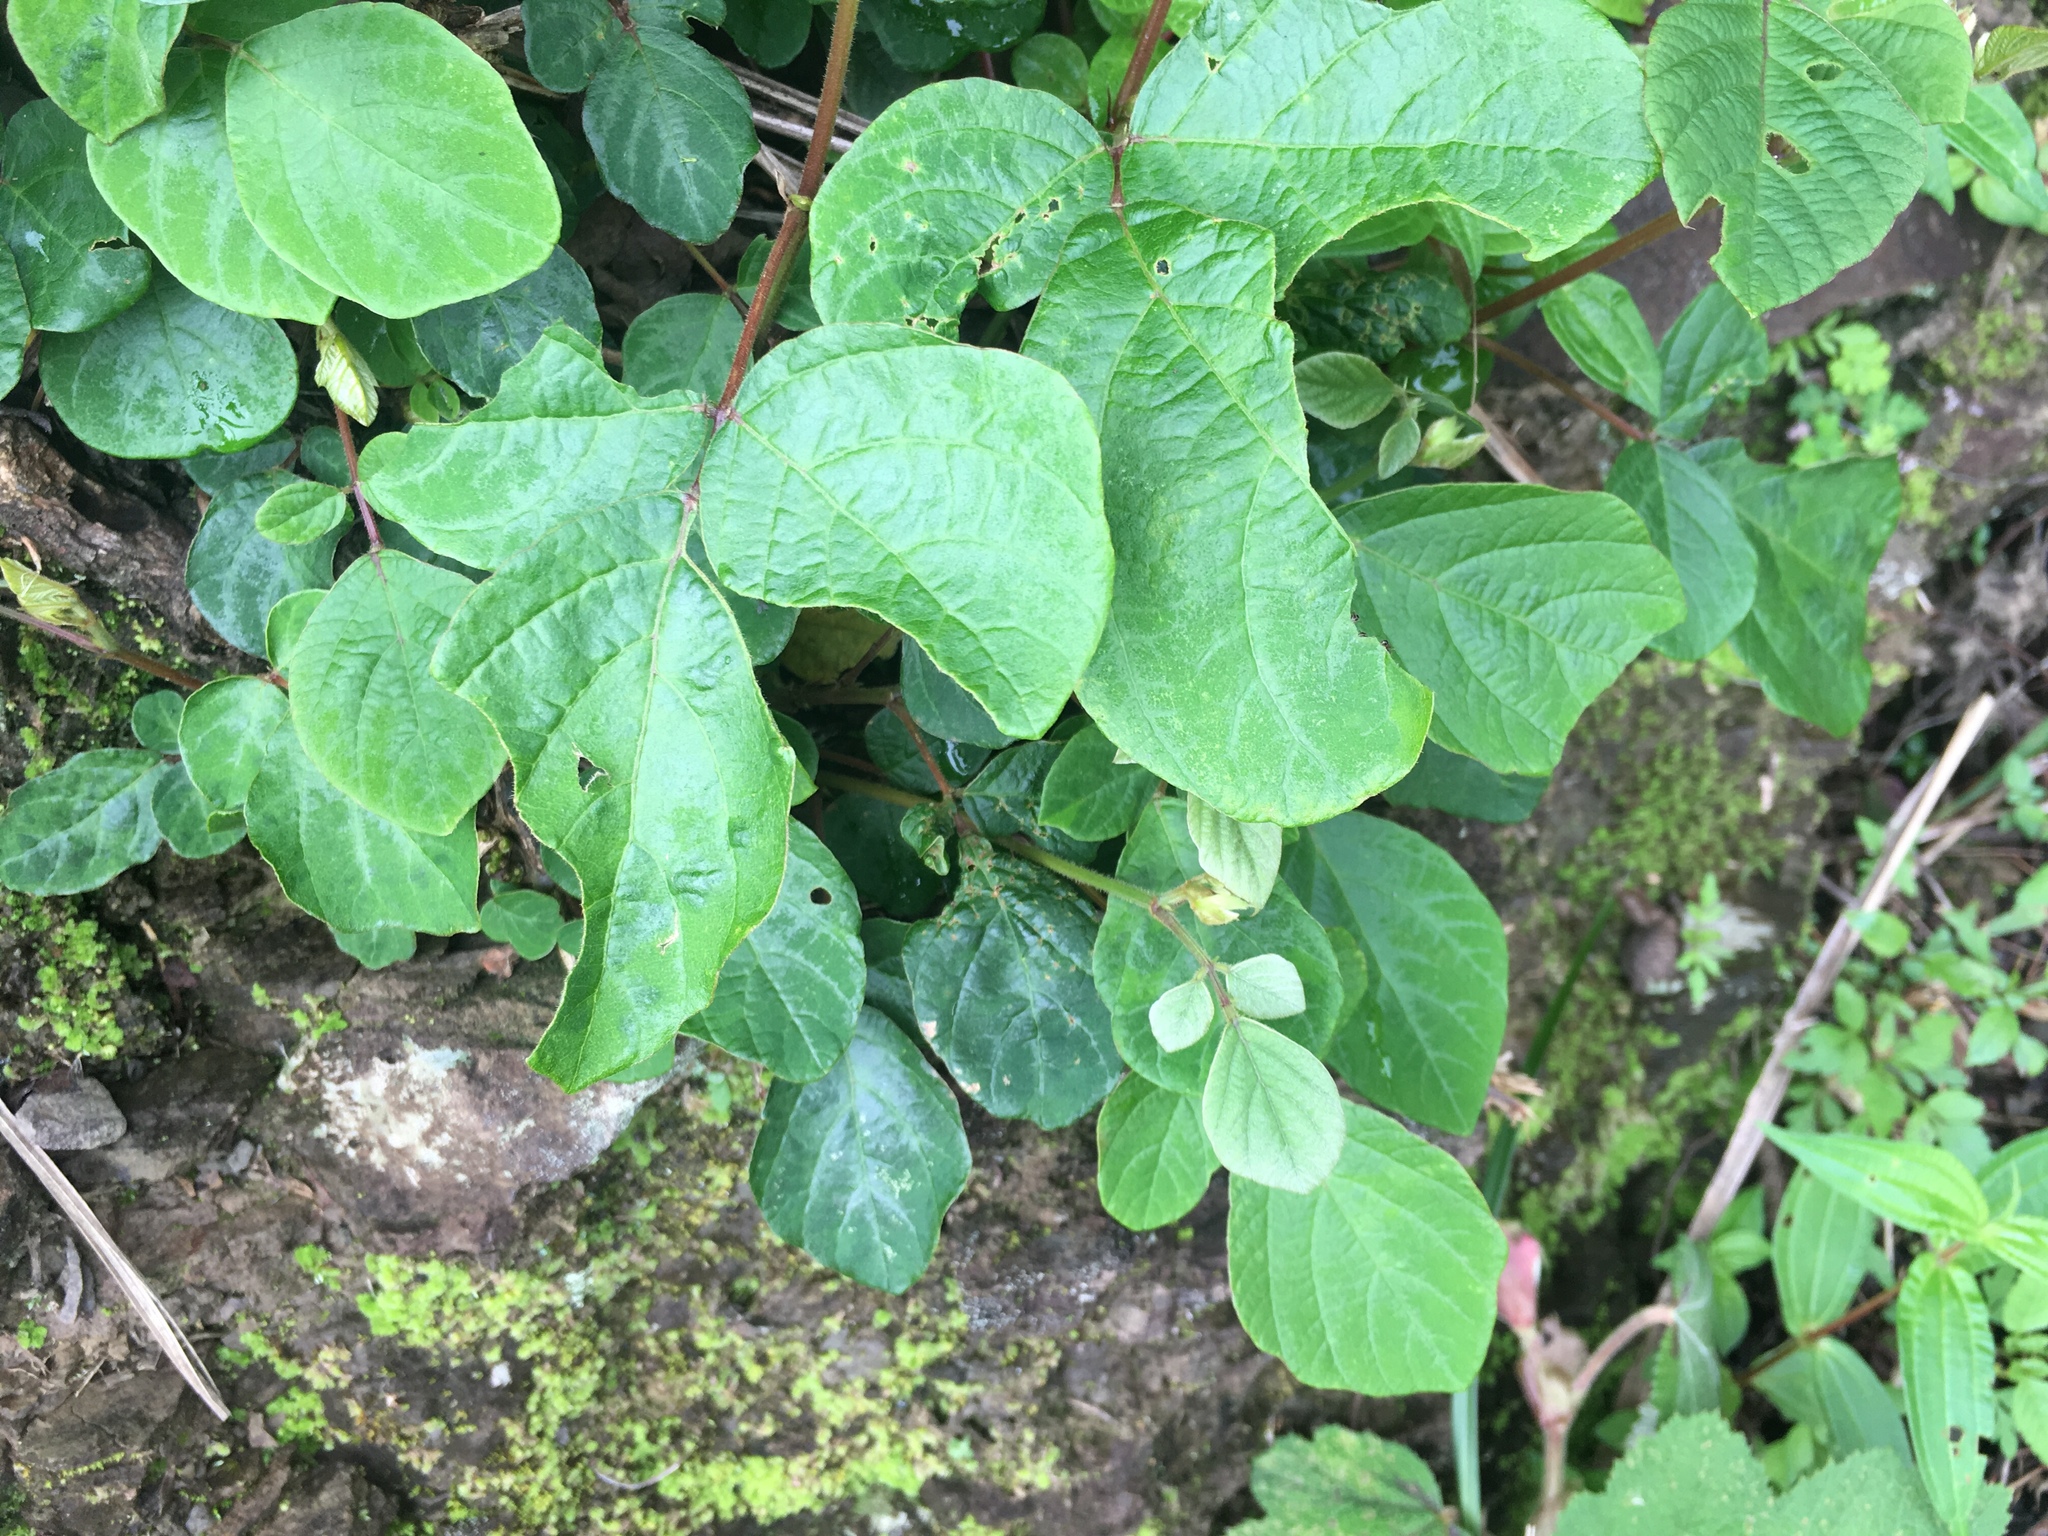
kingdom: Plantae
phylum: Tracheophyta
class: Magnoliopsida
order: Fabales
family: Fabaceae
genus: Puhuaea
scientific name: Puhuaea sequax
